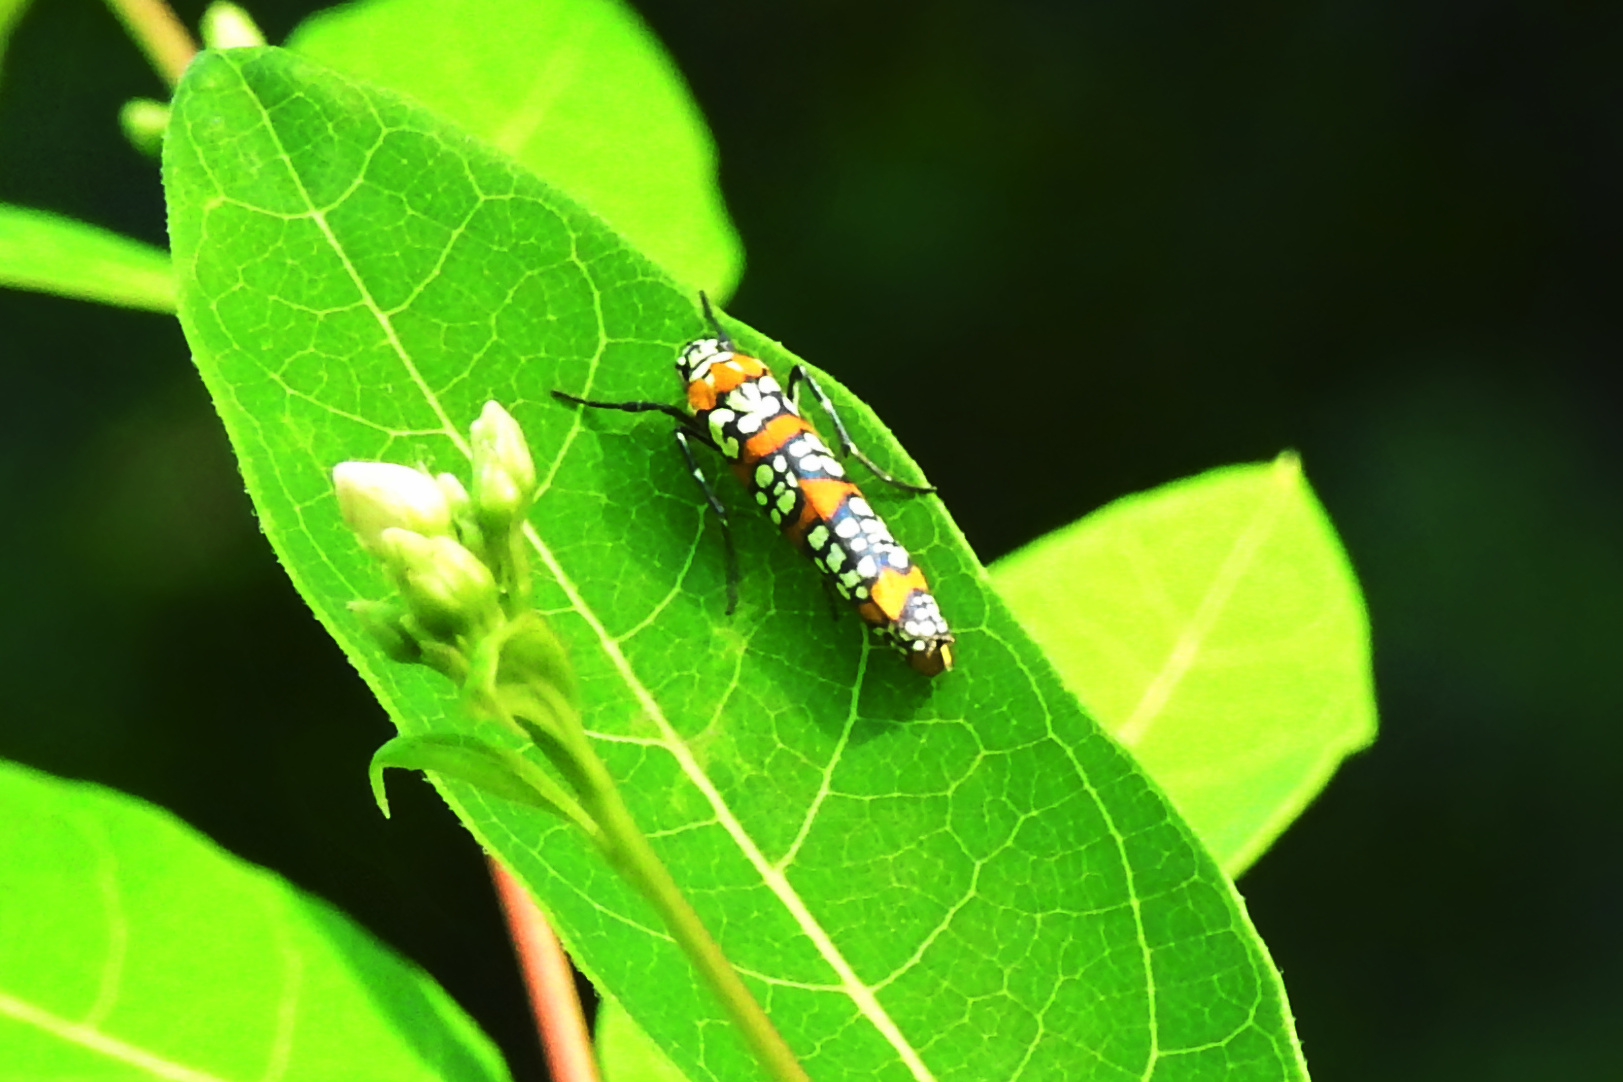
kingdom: Animalia
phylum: Arthropoda
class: Insecta
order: Lepidoptera
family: Attevidae
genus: Atteva
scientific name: Atteva punctella
